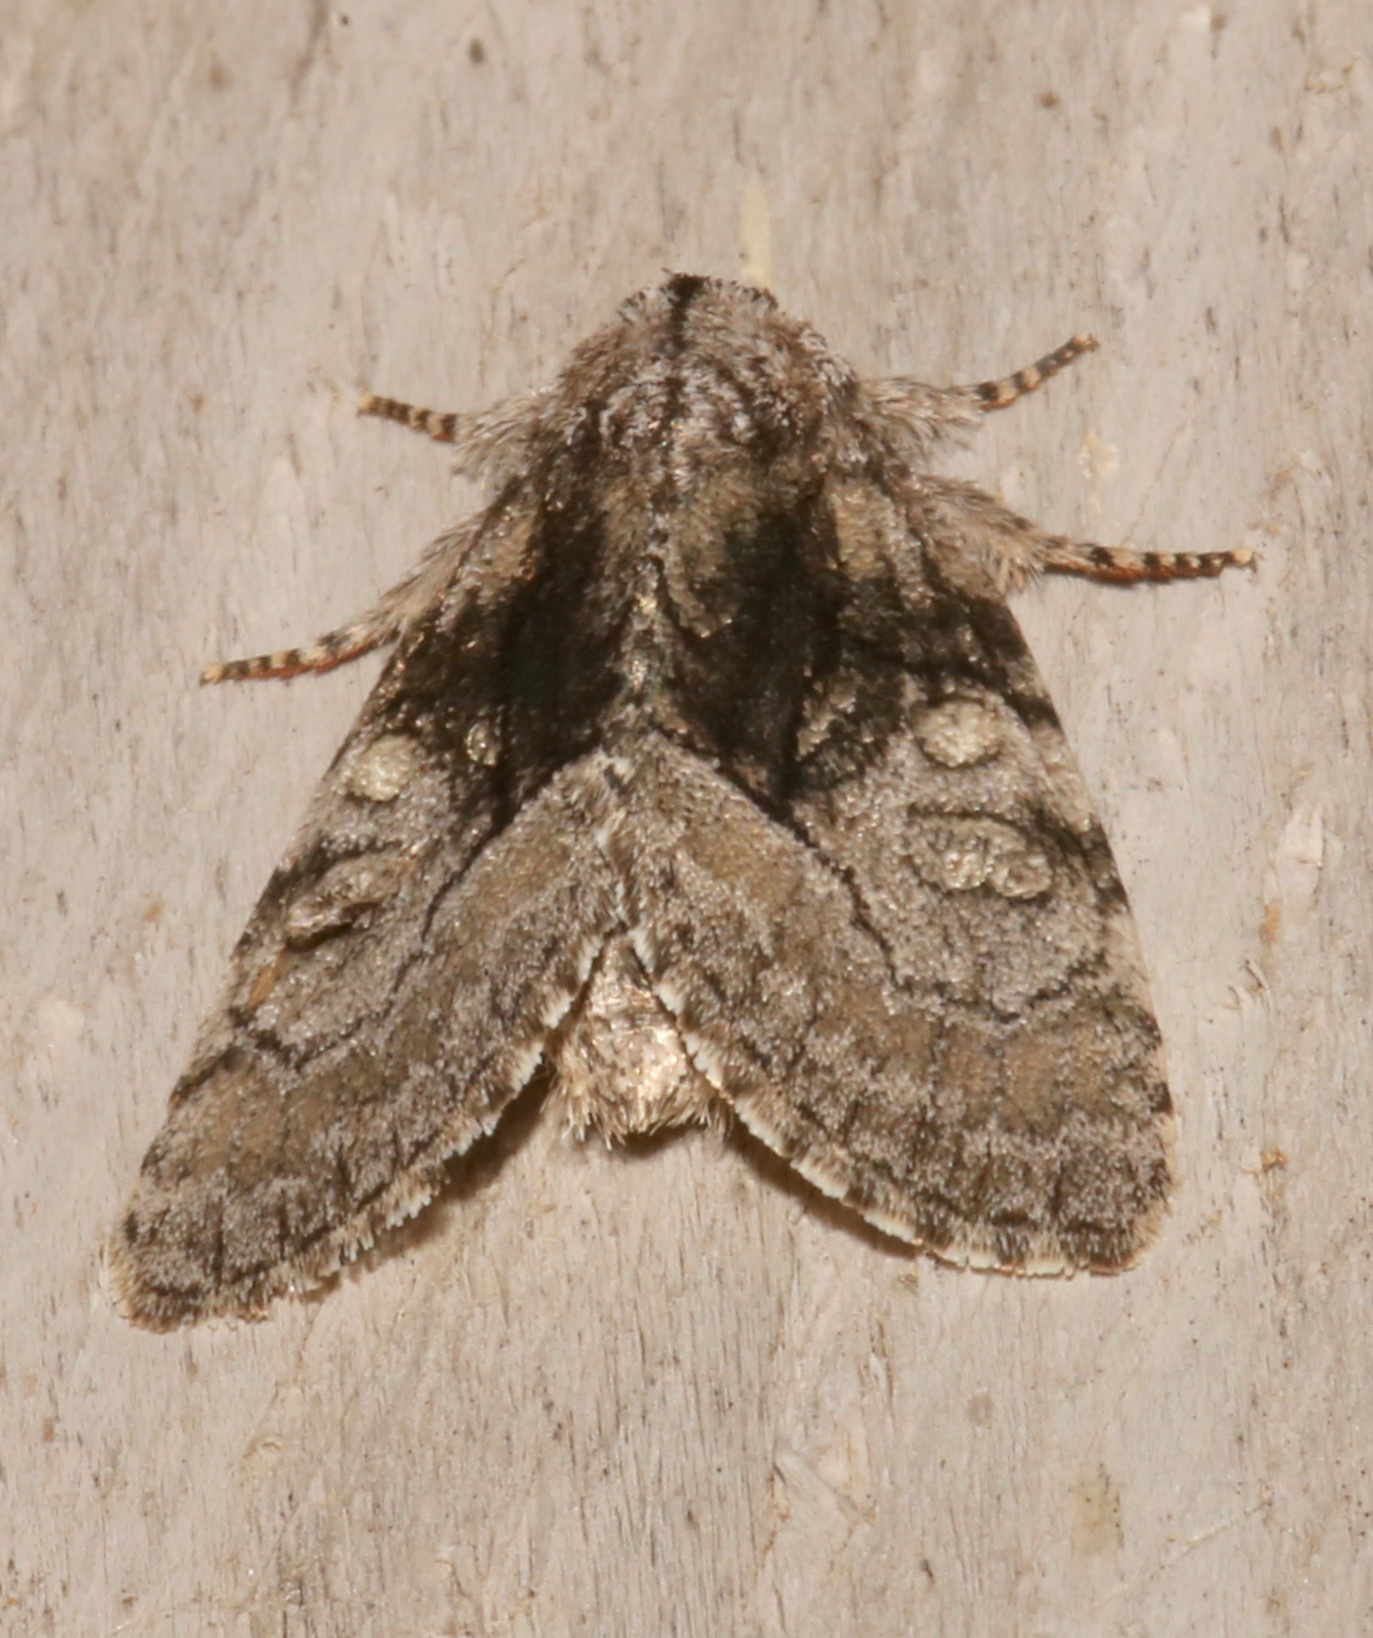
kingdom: Animalia
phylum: Arthropoda
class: Insecta
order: Lepidoptera
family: Noctuidae
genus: Raphia
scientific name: Raphia frater
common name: Brother
